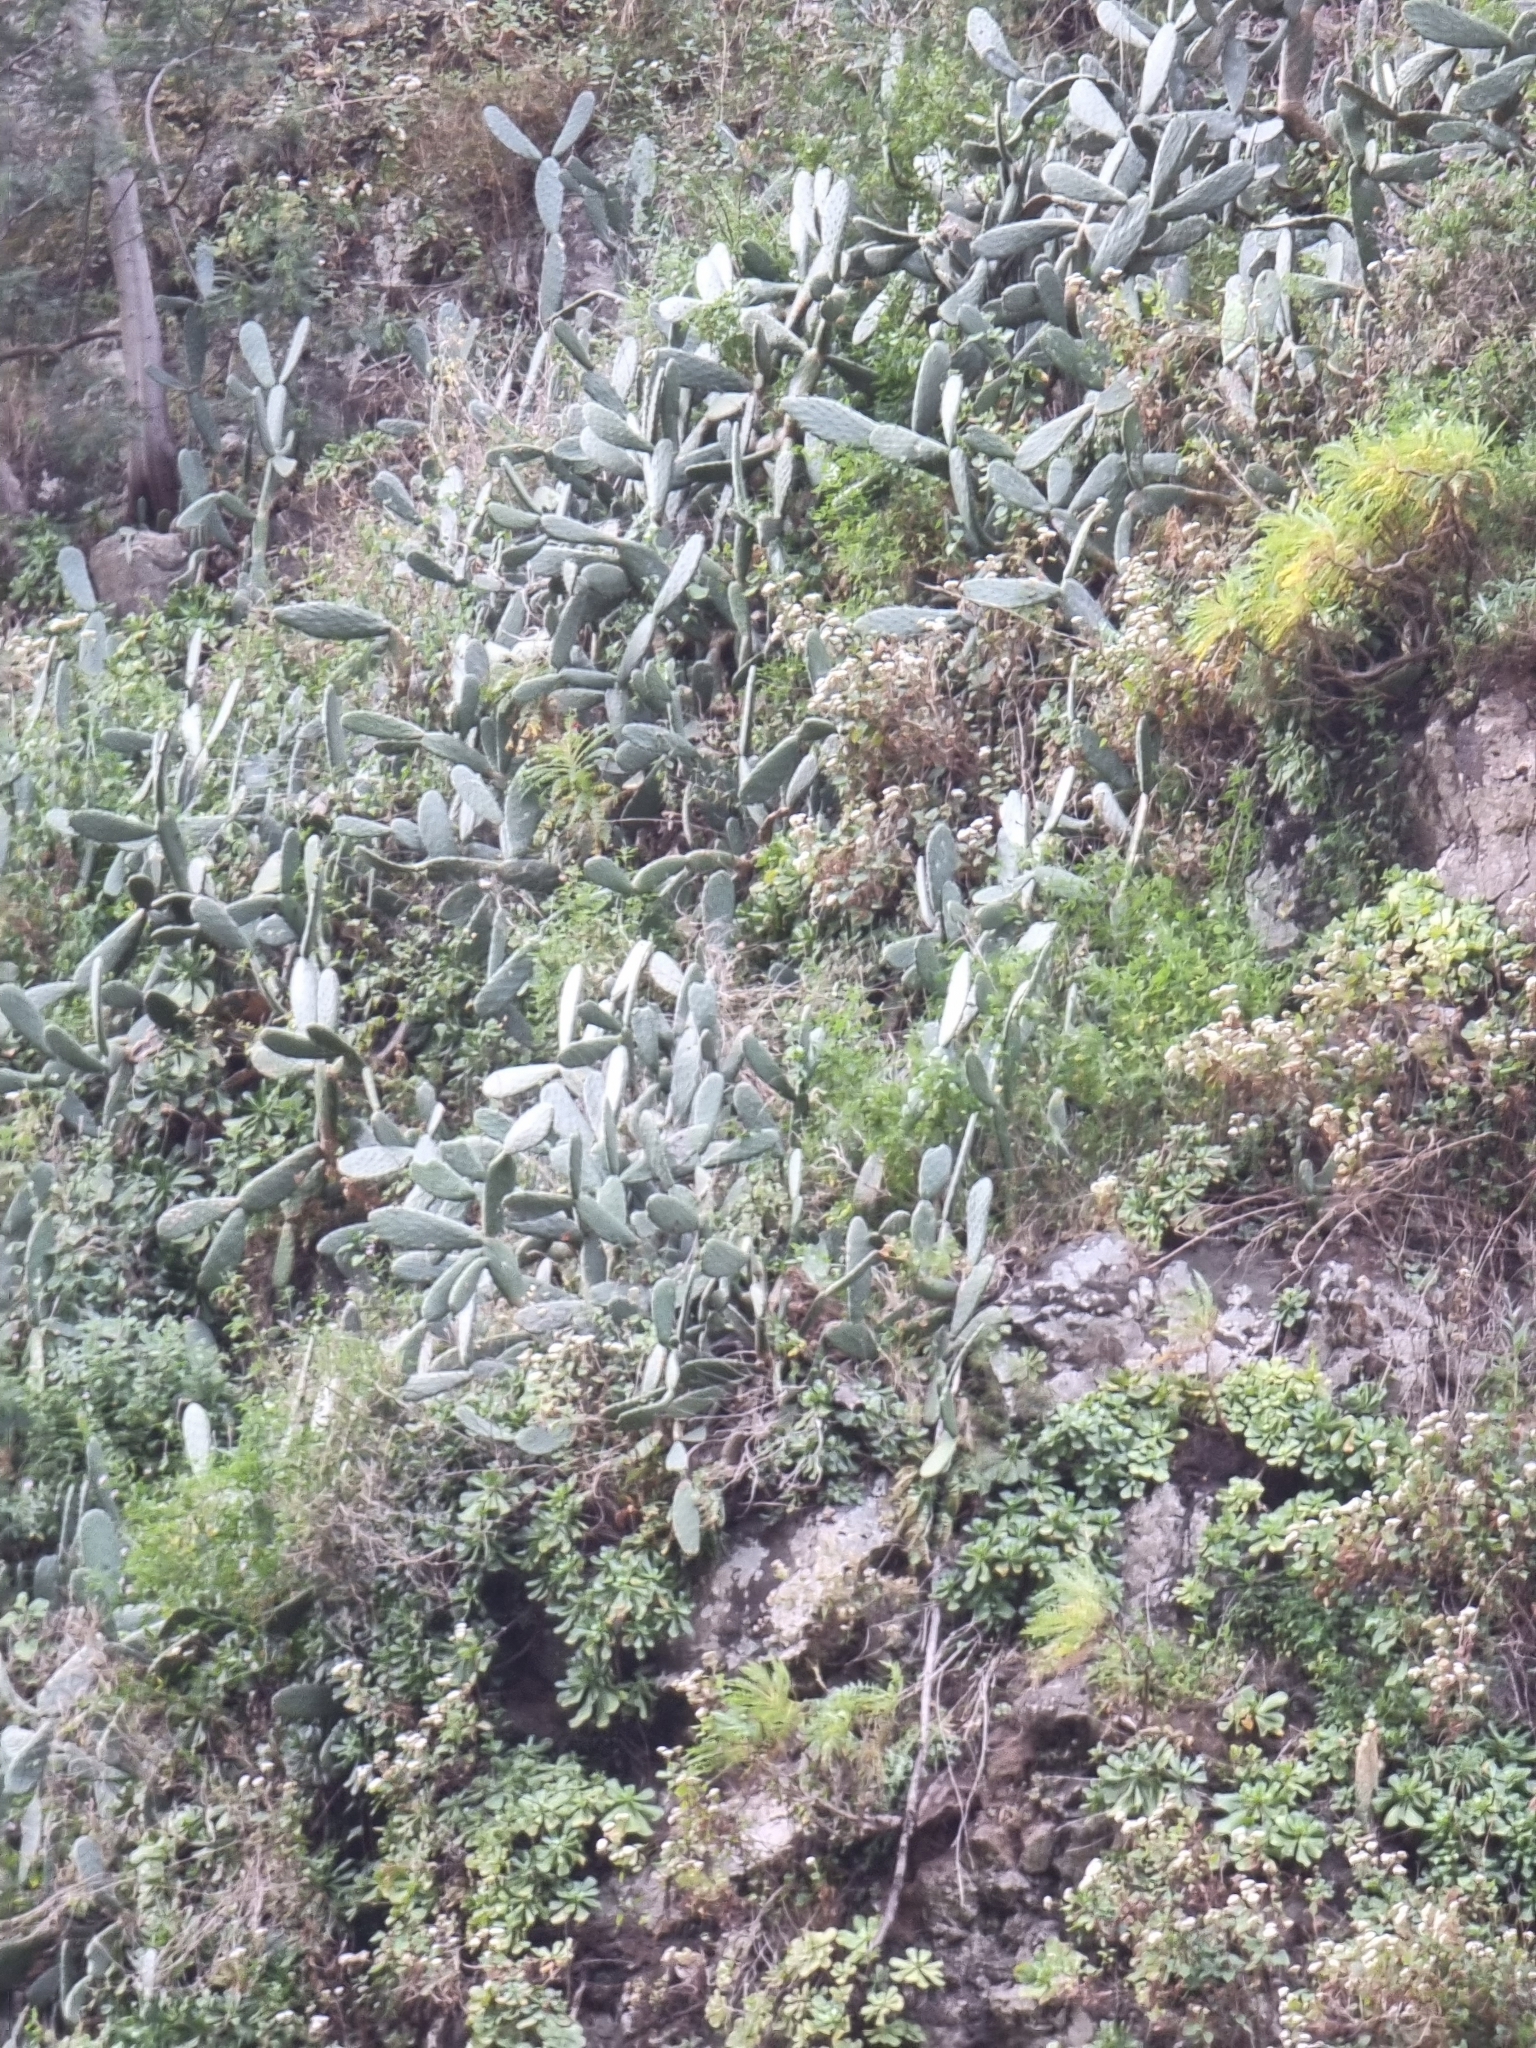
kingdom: Plantae
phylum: Tracheophyta
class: Magnoliopsida
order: Caryophyllales
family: Cactaceae
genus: Opuntia
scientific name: Opuntia ficus-indica
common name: Barbary fig
